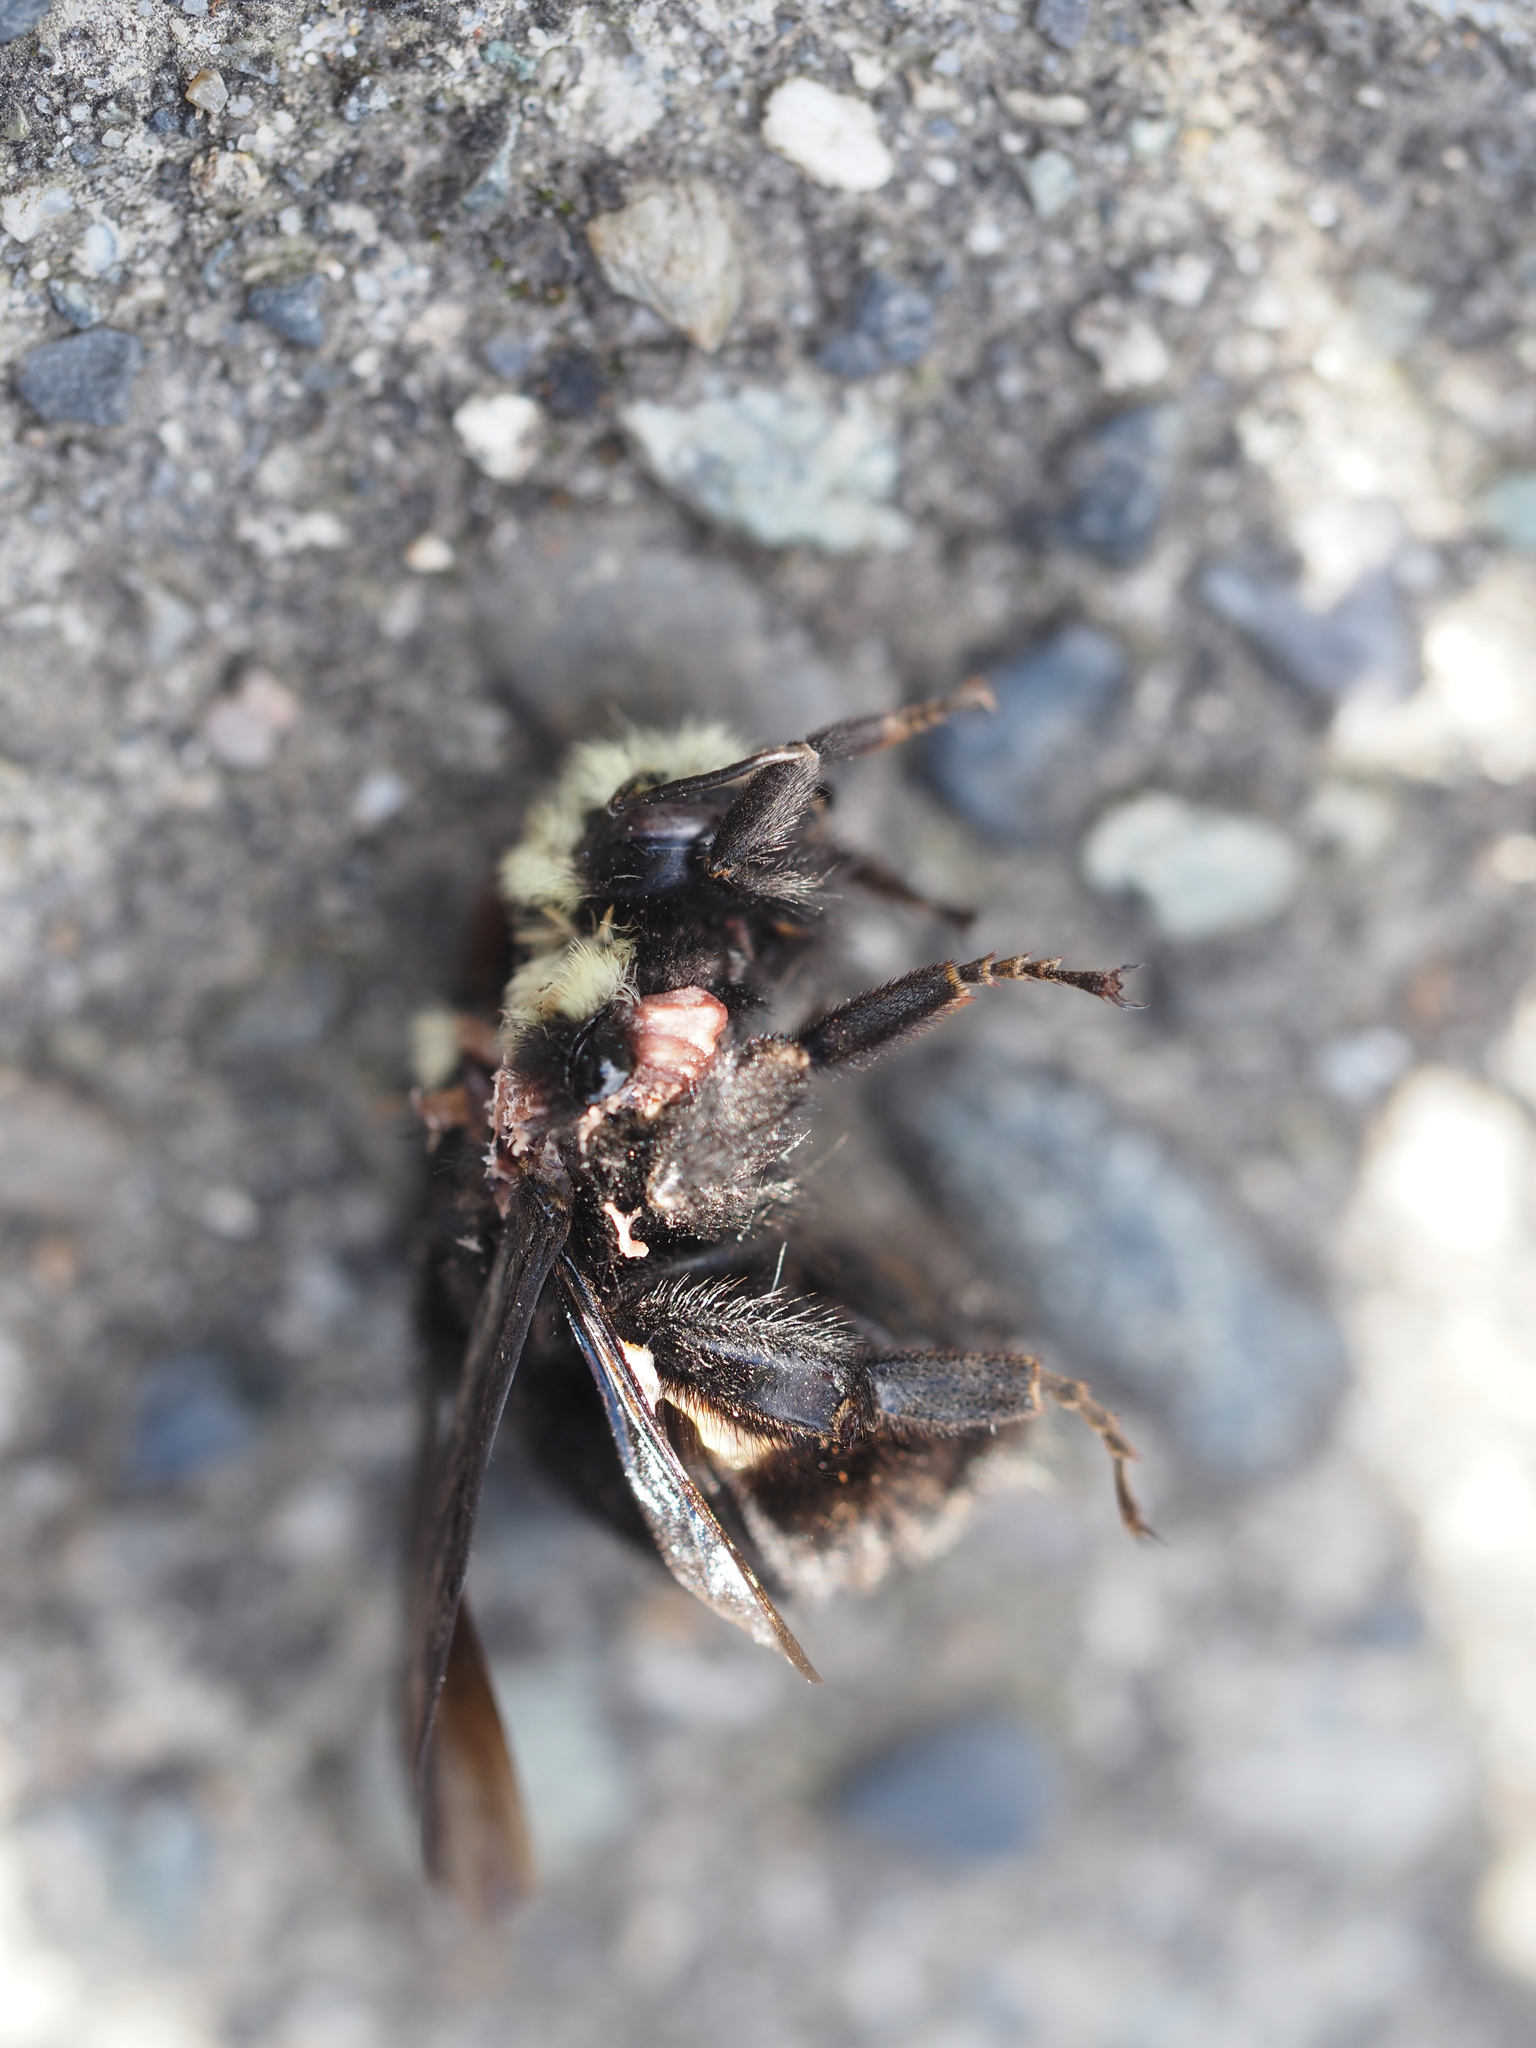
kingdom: Animalia
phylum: Arthropoda
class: Insecta
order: Hymenoptera
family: Apidae
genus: Bombus
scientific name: Bombus vosnesenskii
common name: Vosnesensky bumble bee
